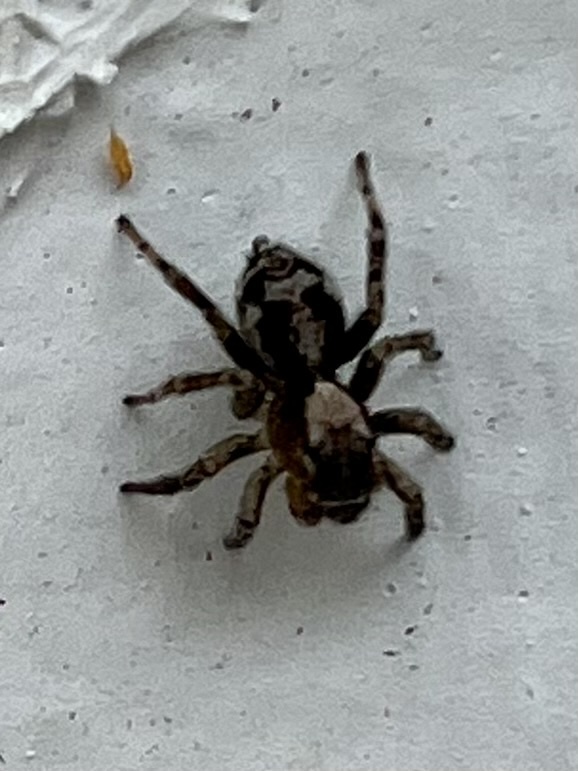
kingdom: Animalia
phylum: Arthropoda
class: Arachnida
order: Araneae
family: Salticidae
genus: Naphrys
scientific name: Naphrys pulex
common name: Flea jumping spider
